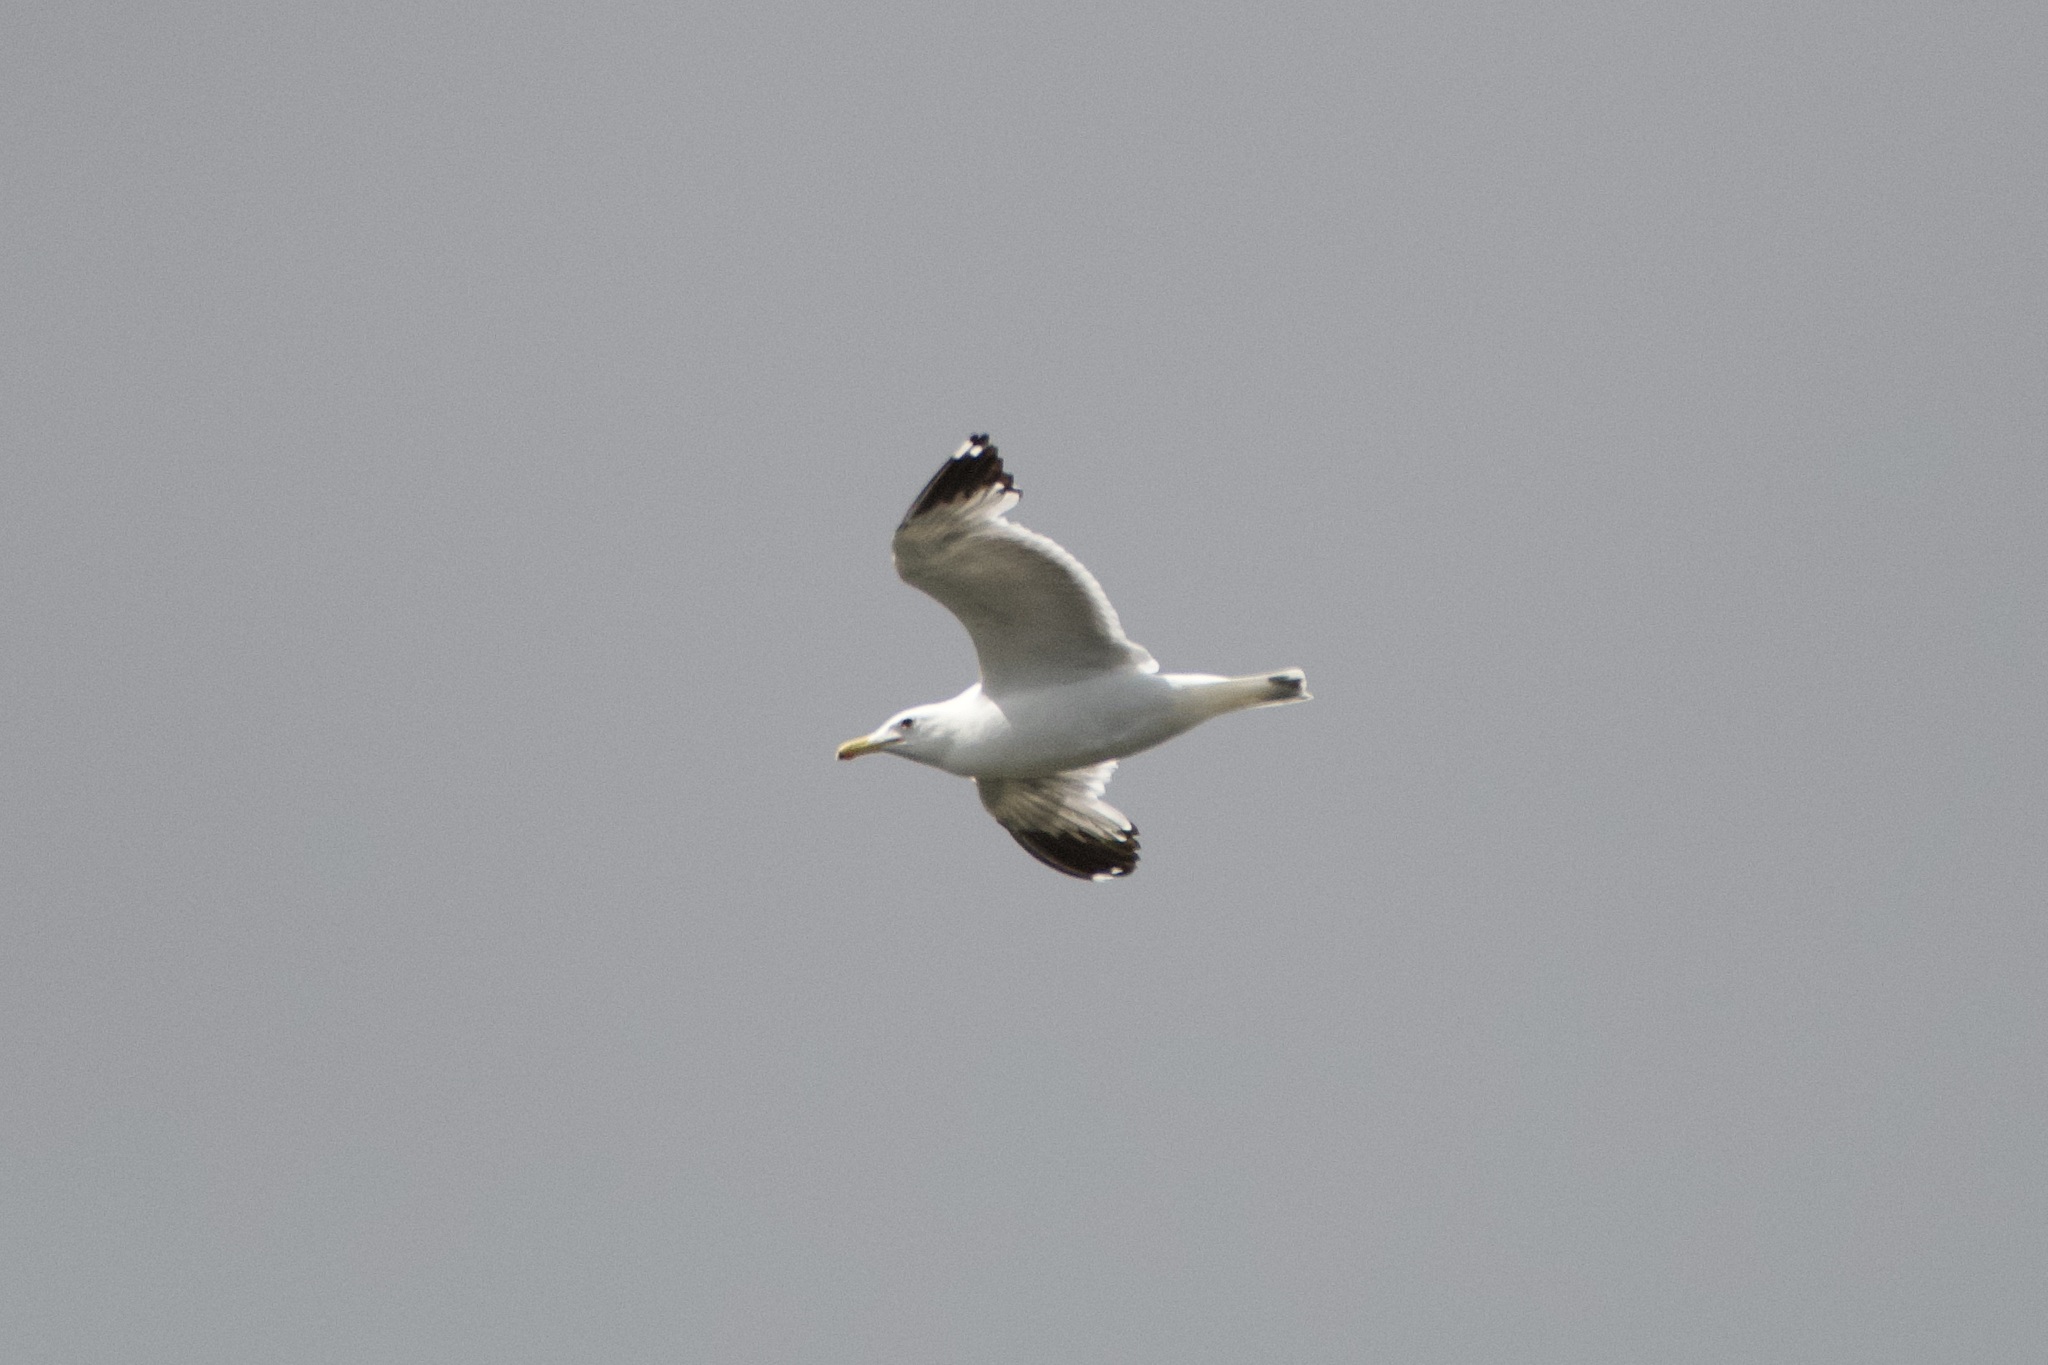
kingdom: Animalia
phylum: Chordata
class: Aves
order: Charadriiformes
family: Laridae
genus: Larus
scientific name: Larus californicus
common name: California gull
